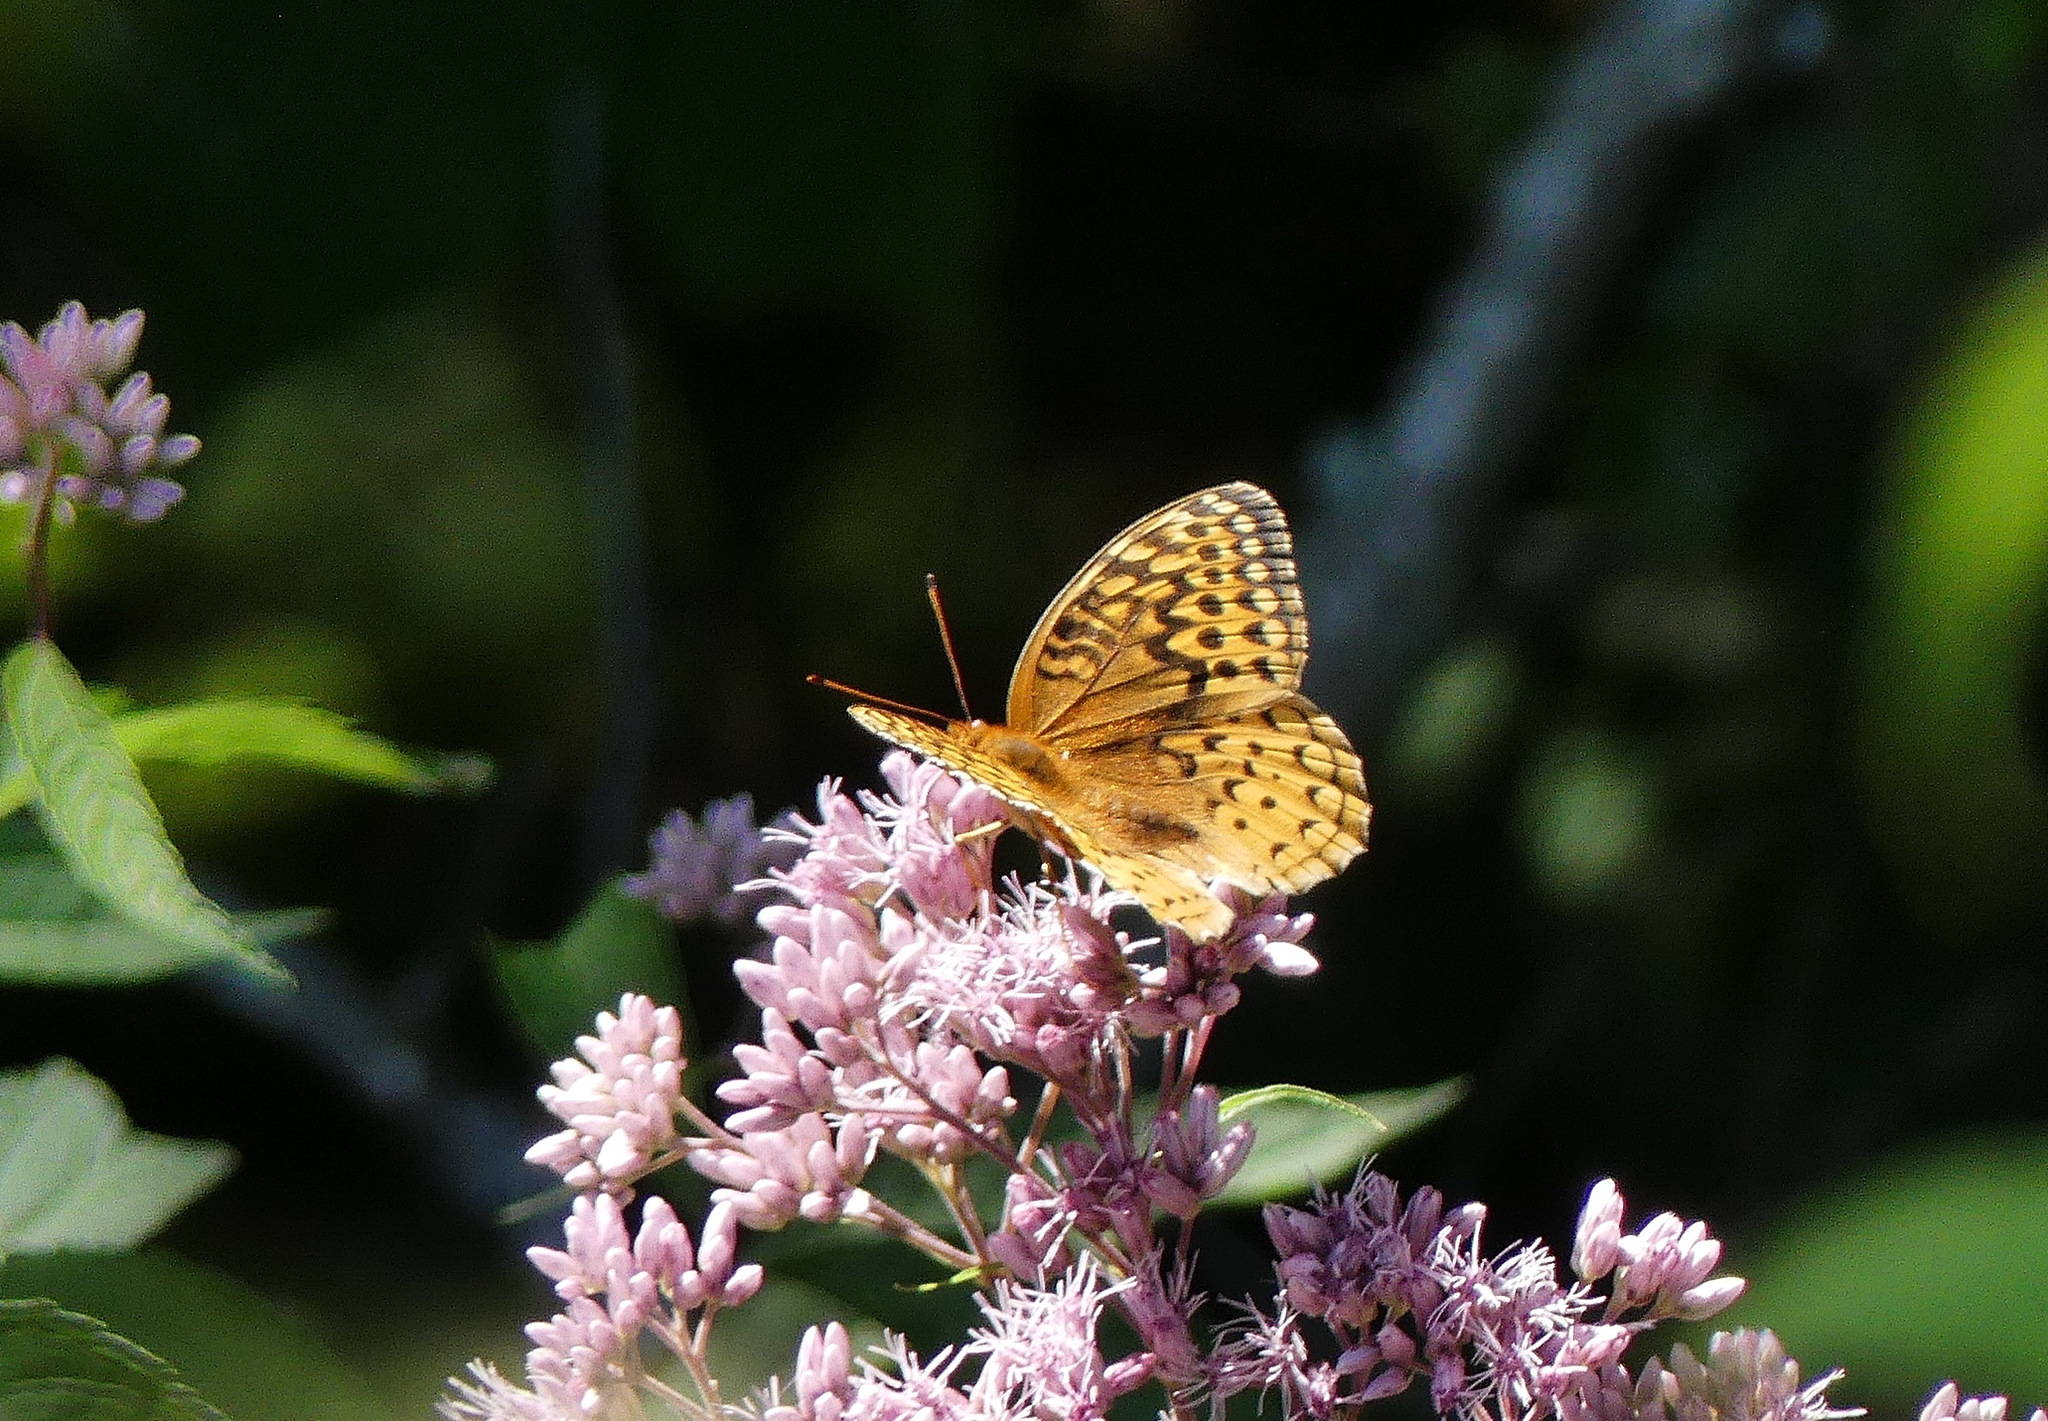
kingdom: Animalia
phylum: Arthropoda
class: Insecta
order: Lepidoptera
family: Nymphalidae
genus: Speyeria
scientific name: Speyeria cybele
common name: Great spangled fritillary
